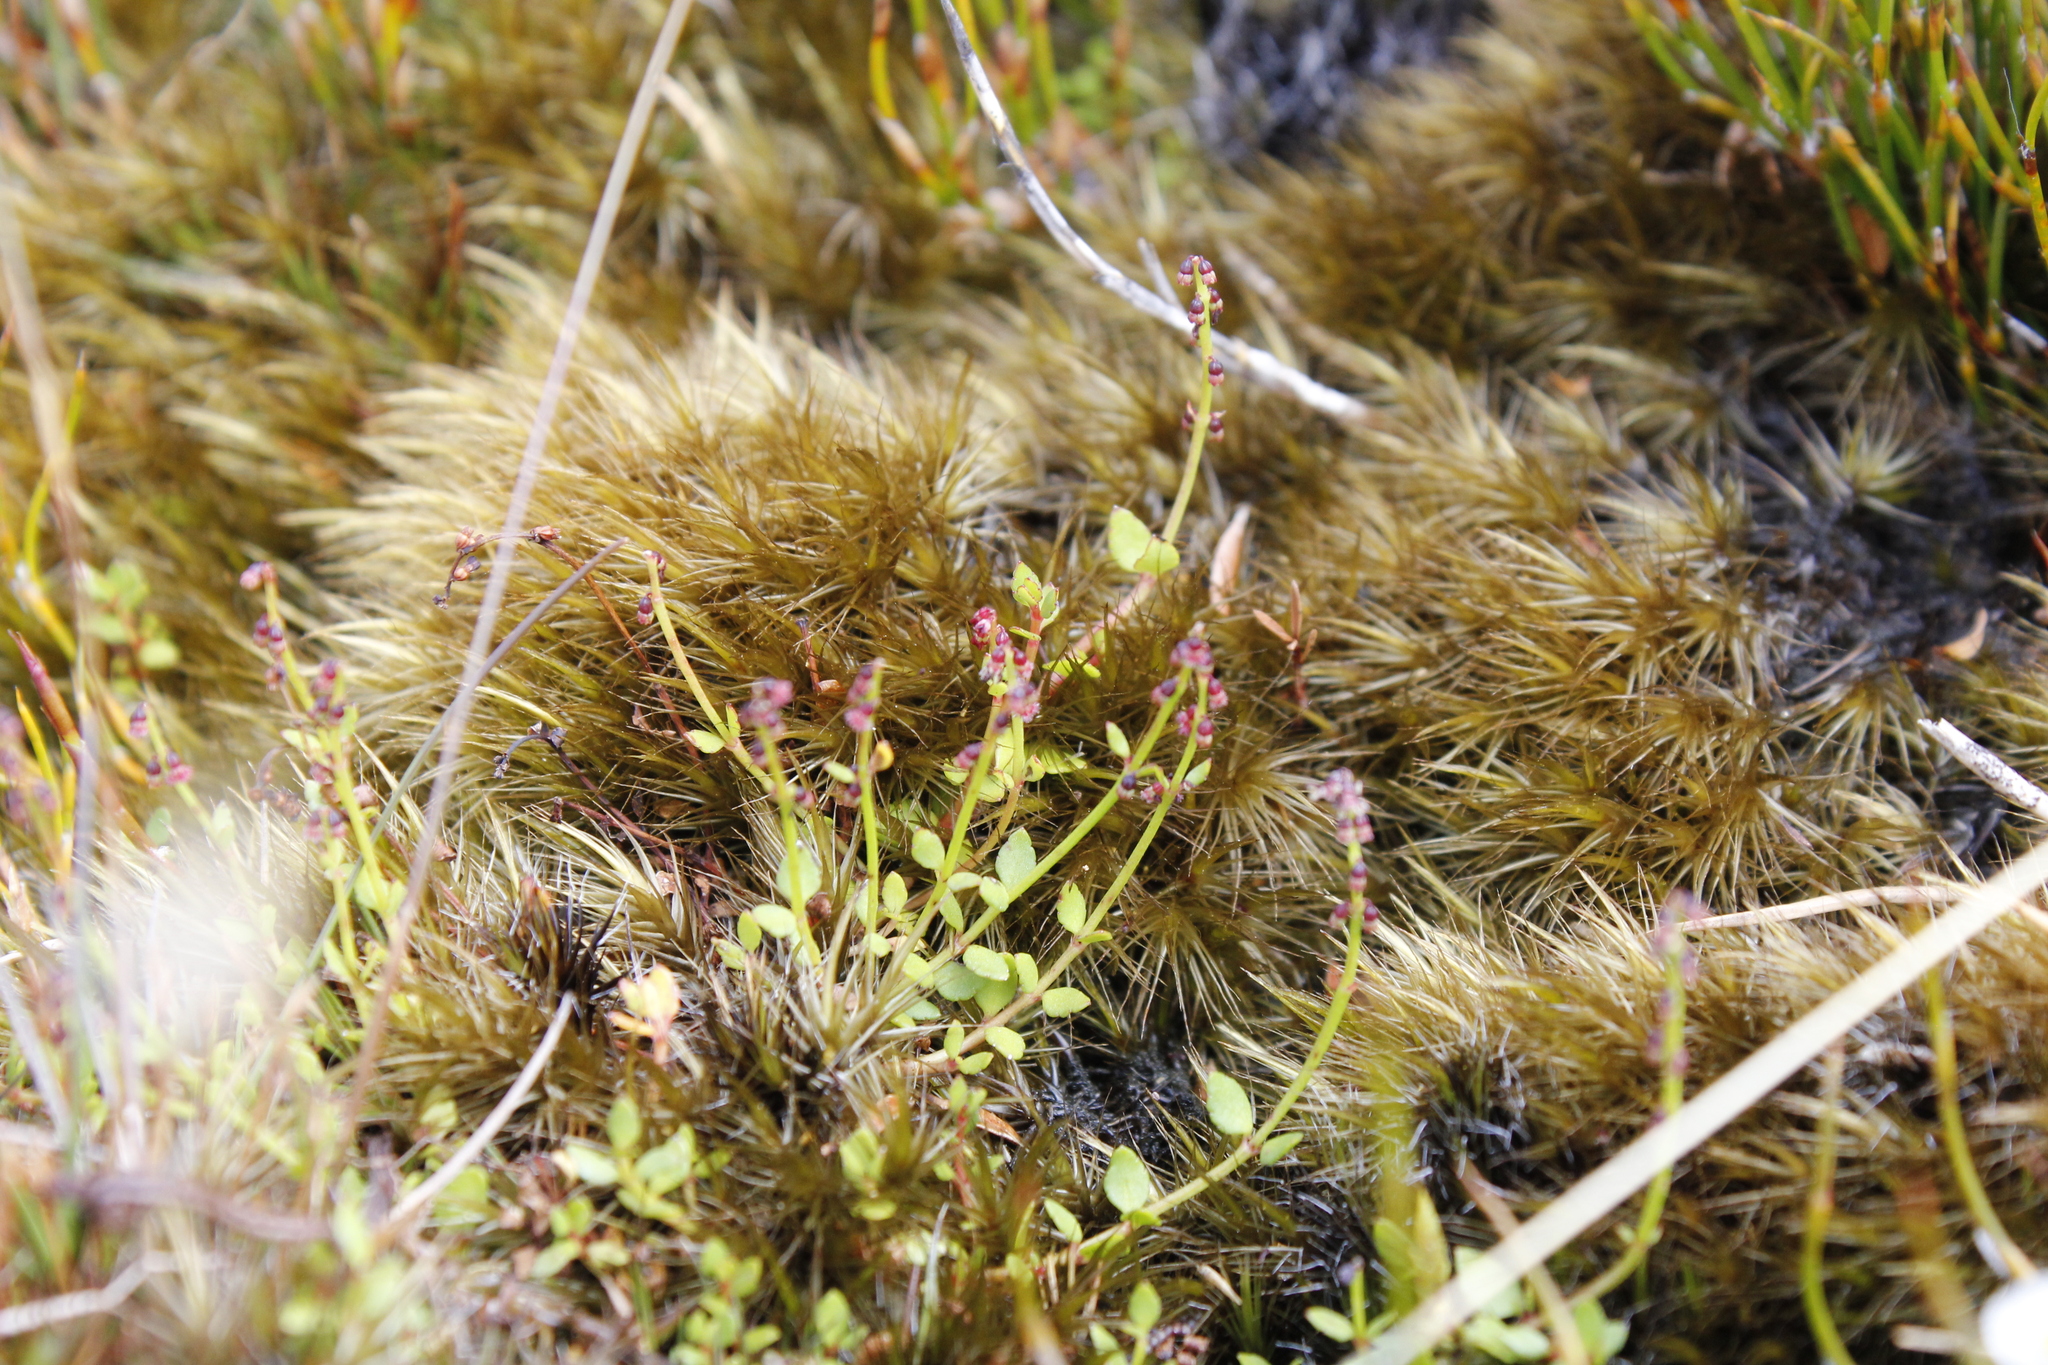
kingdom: Plantae
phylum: Tracheophyta
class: Magnoliopsida
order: Saxifragales
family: Haloragaceae
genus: Gonocarpus
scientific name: Gonocarpus micranthus
